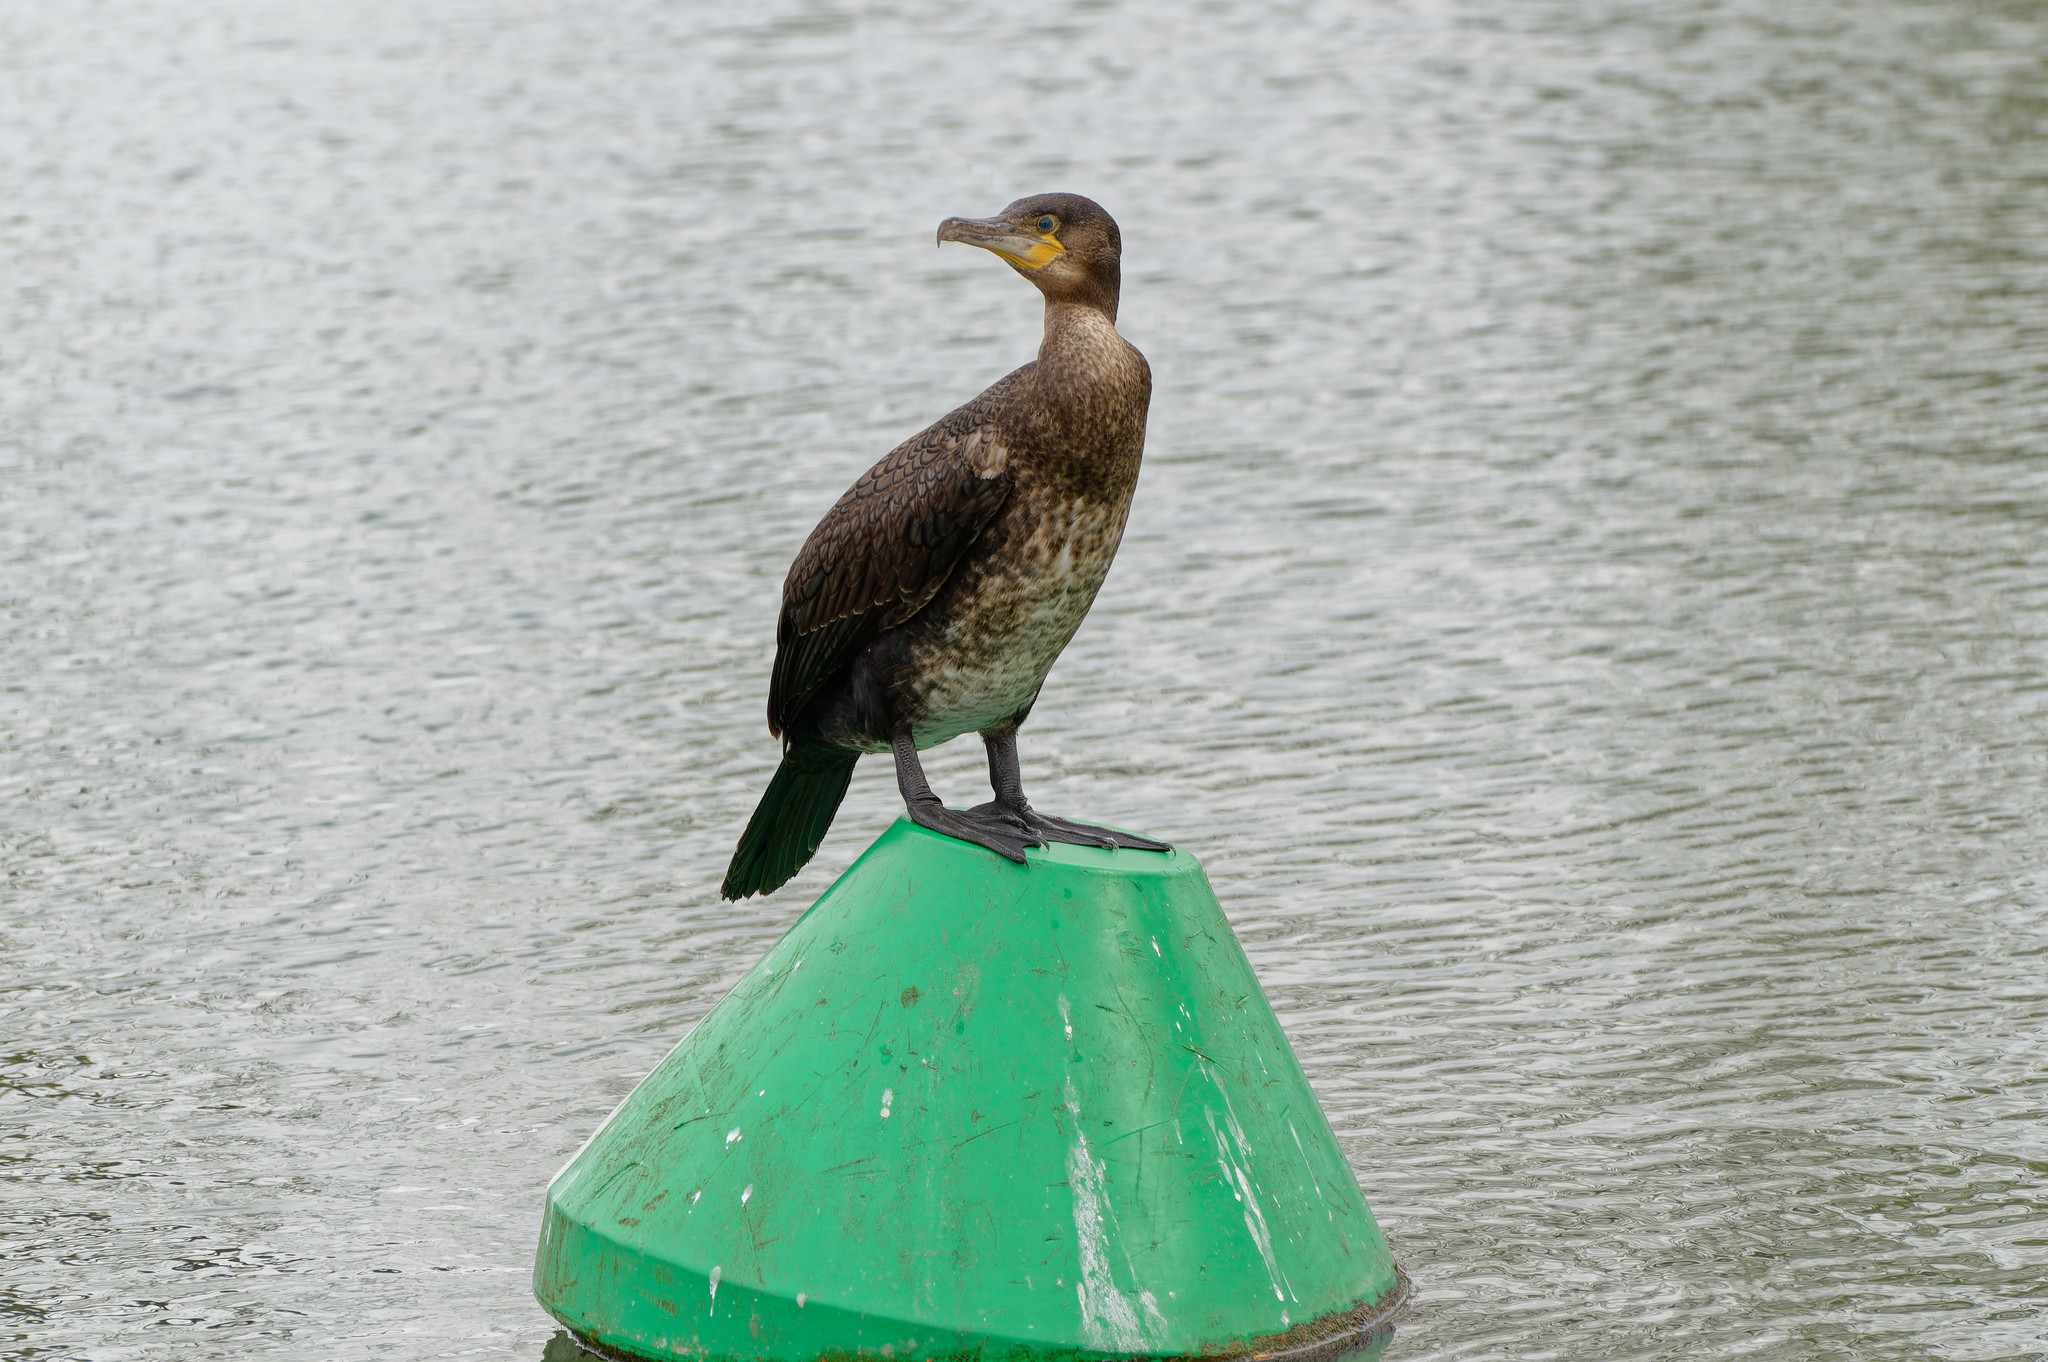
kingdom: Animalia
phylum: Chordata
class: Aves
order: Suliformes
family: Phalacrocoracidae
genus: Phalacrocorax
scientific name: Phalacrocorax carbo
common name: Great cormorant
